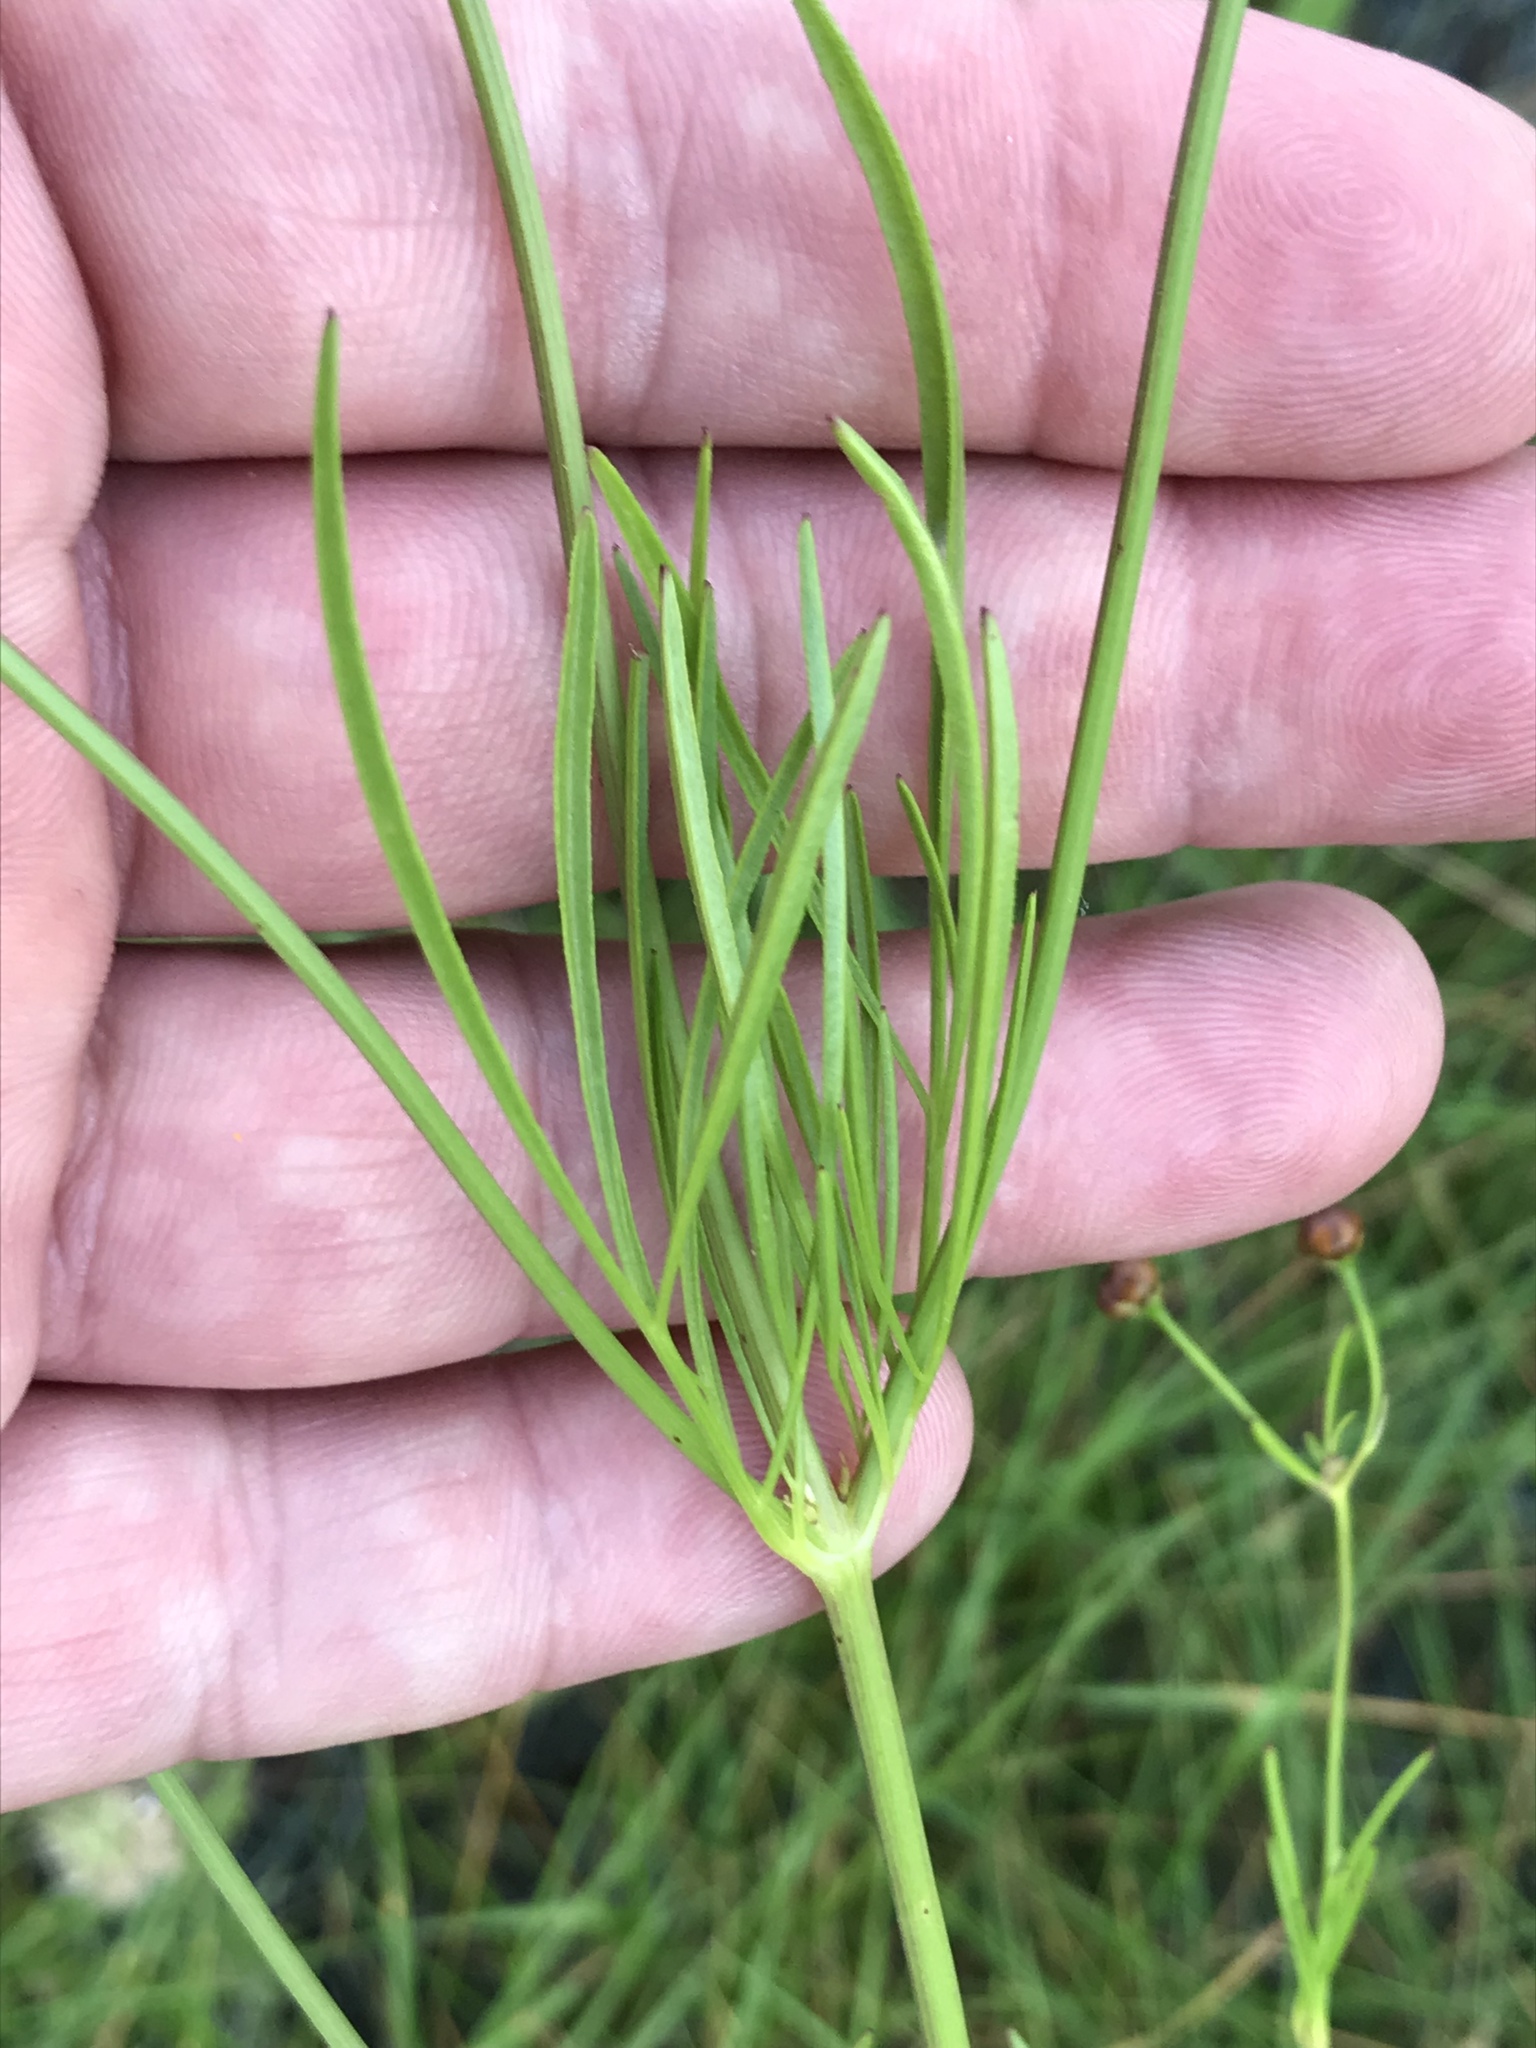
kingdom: Plantae
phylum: Tracheophyta
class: Magnoliopsida
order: Asterales
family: Asteraceae
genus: Coreopsis
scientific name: Coreopsis tinctoria
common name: Garden tickseed
